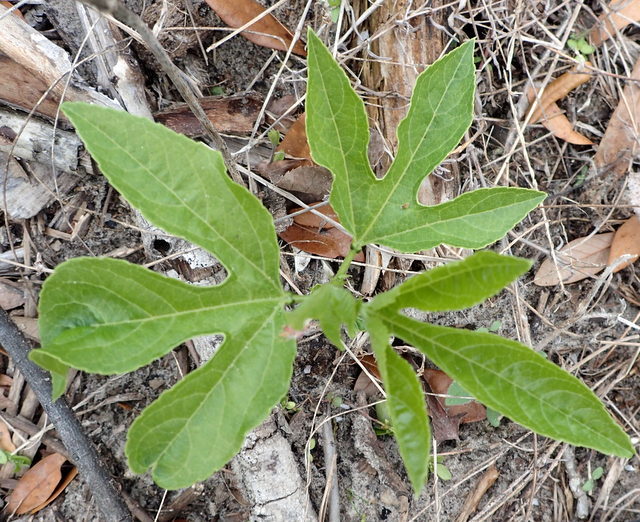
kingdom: Plantae
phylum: Tracheophyta
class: Magnoliopsida
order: Malpighiales
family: Passifloraceae
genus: Passiflora
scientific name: Passiflora incarnata
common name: Apricot-vine
